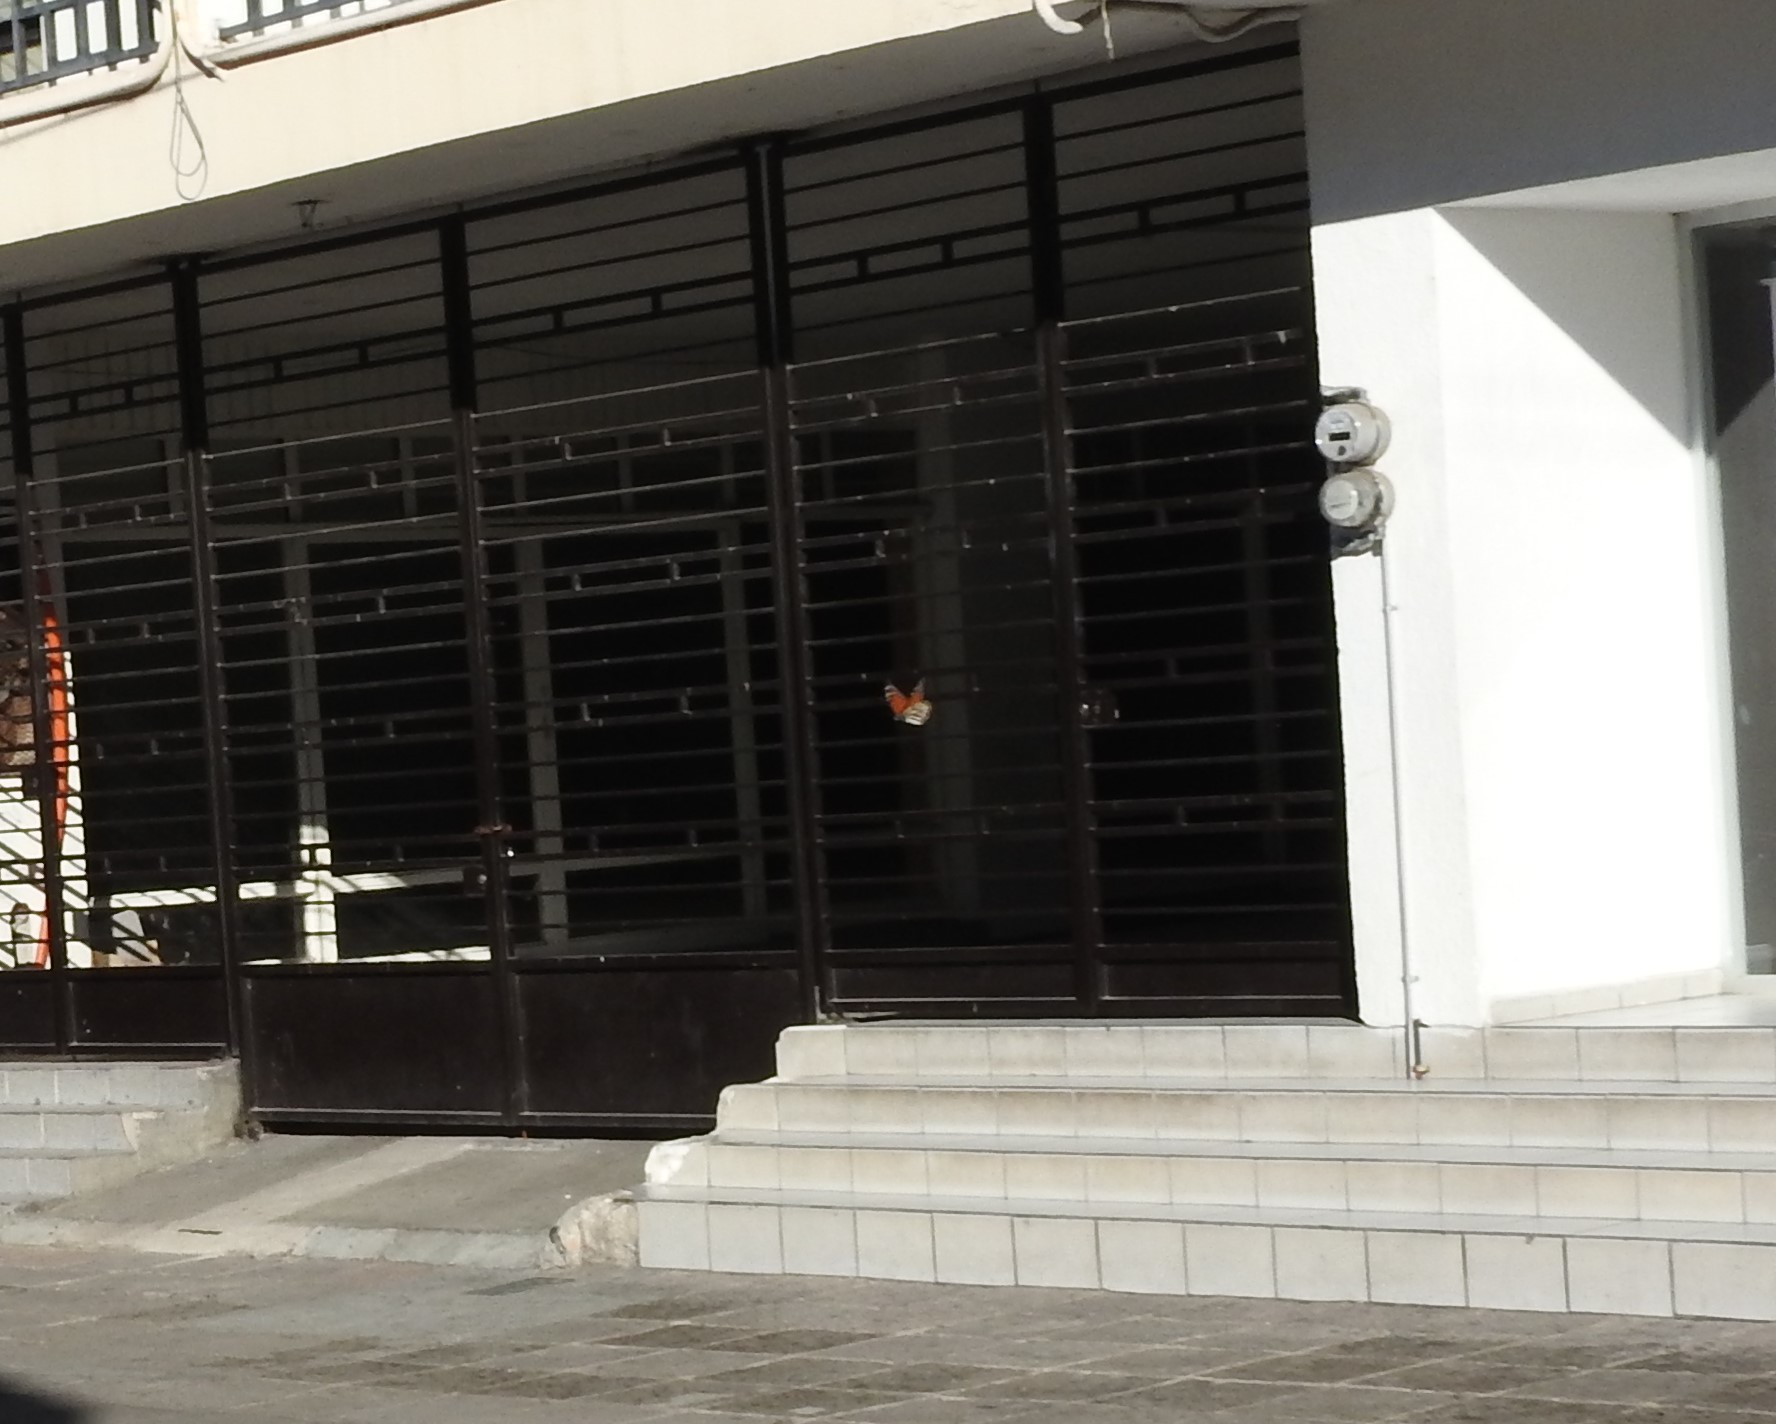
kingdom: Animalia
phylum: Arthropoda
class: Insecta
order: Lepidoptera
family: Nymphalidae
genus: Danaus
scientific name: Danaus plexippus
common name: Monarch
